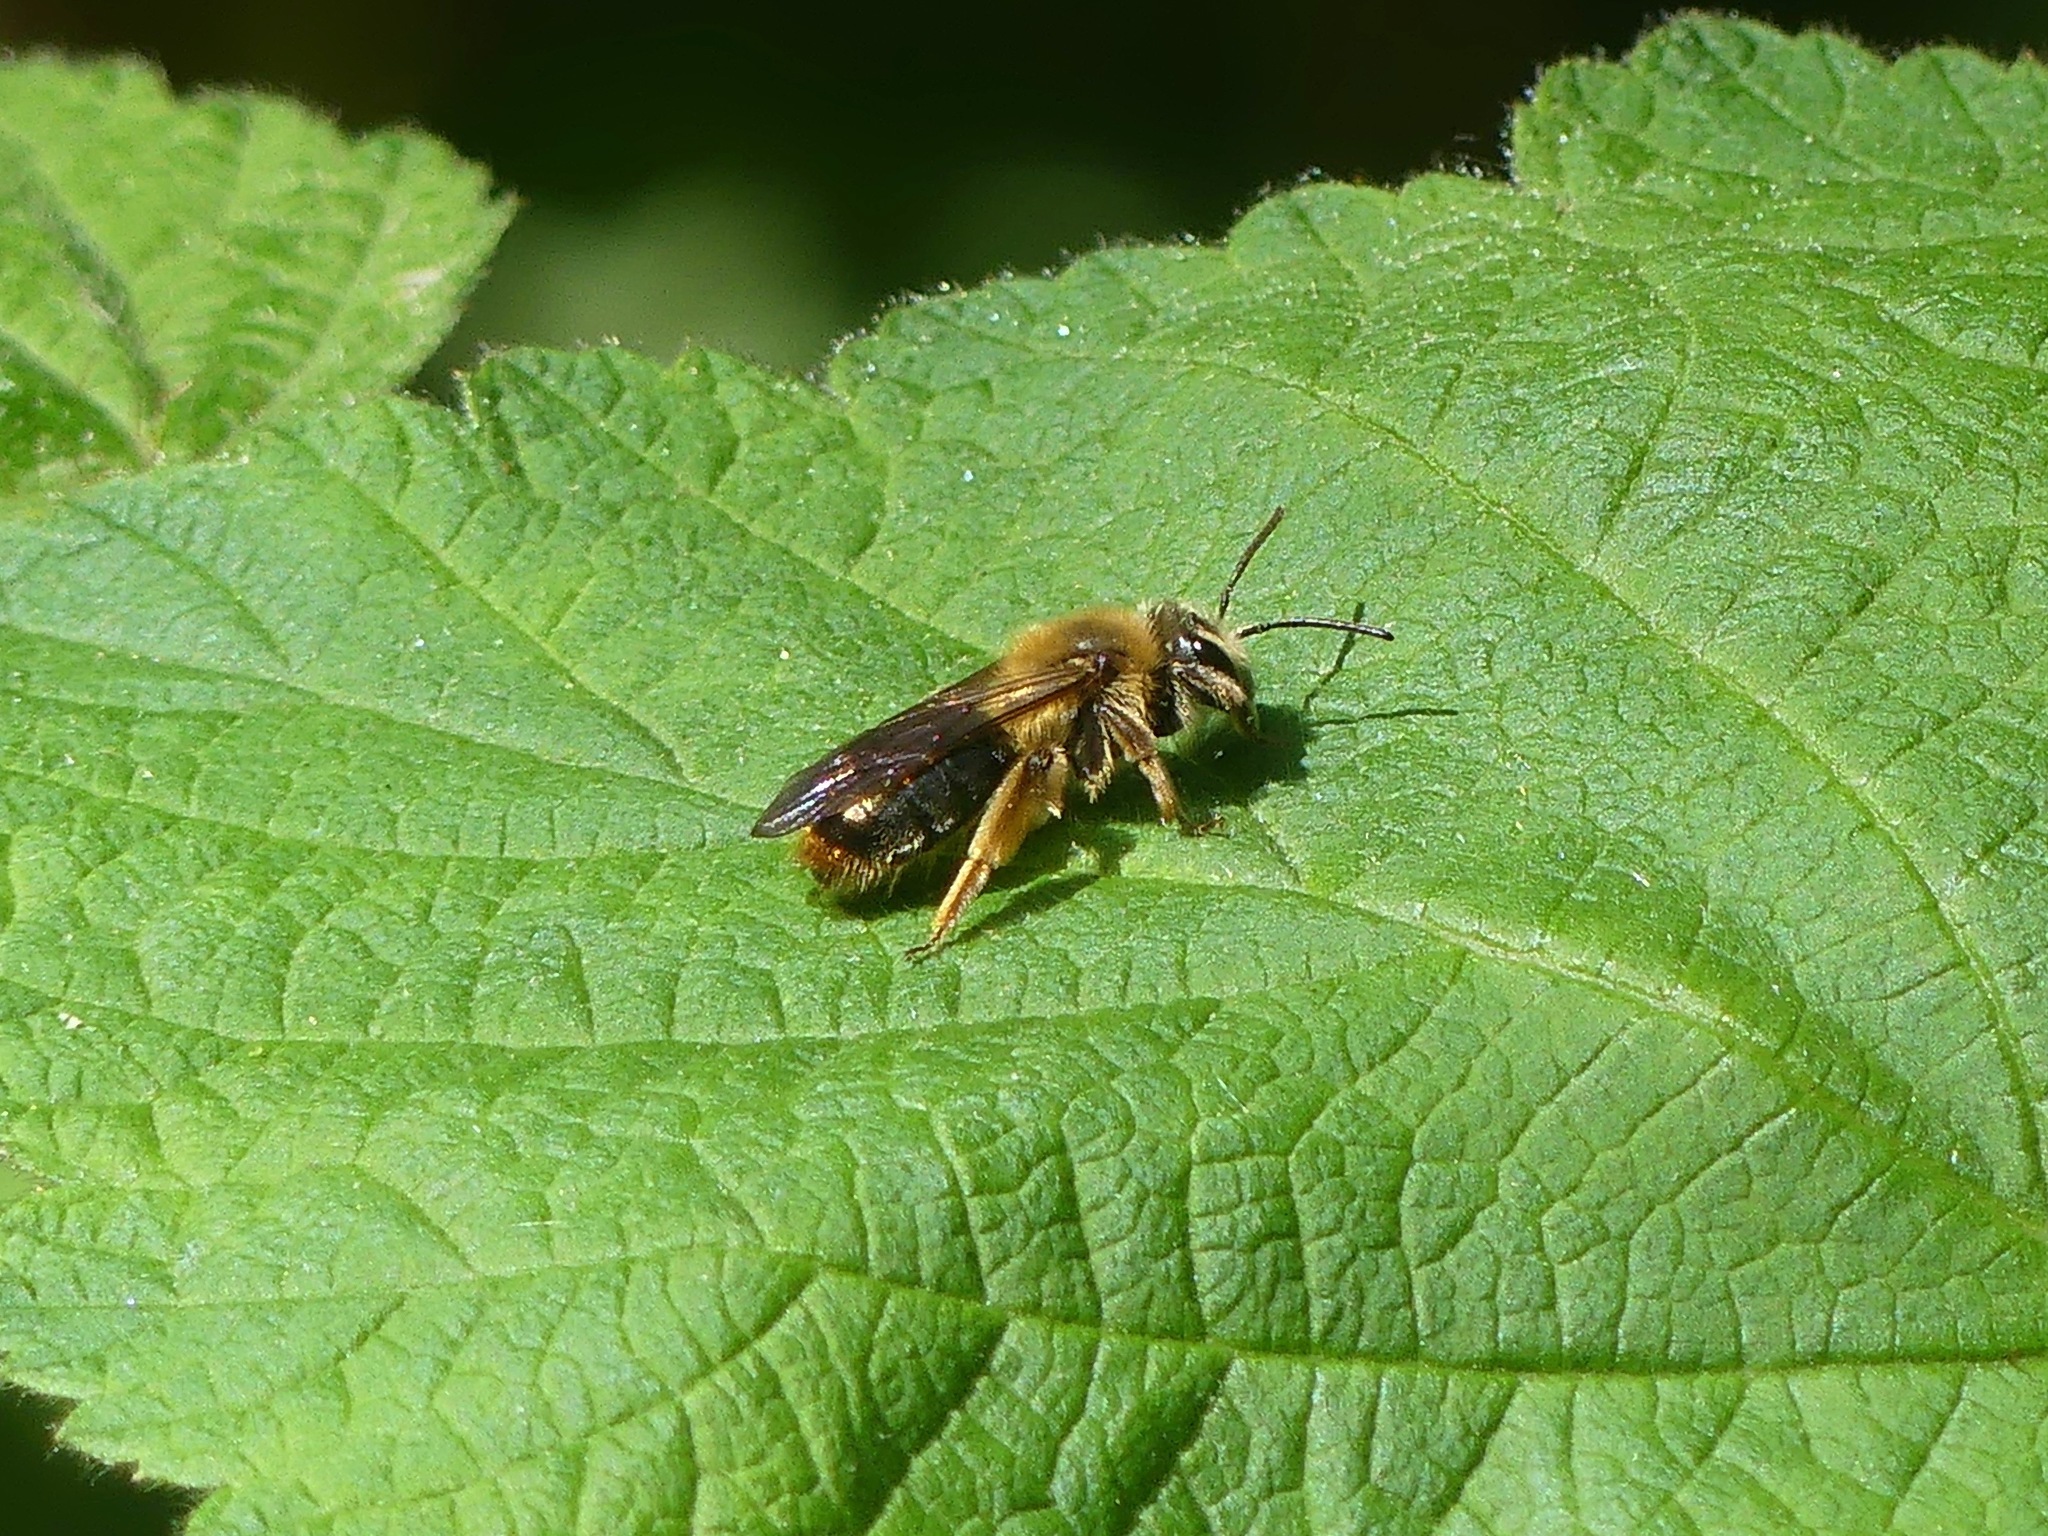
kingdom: Animalia
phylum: Arthropoda
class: Insecta
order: Hymenoptera
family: Andrenidae
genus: Andrena
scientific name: Andrena
